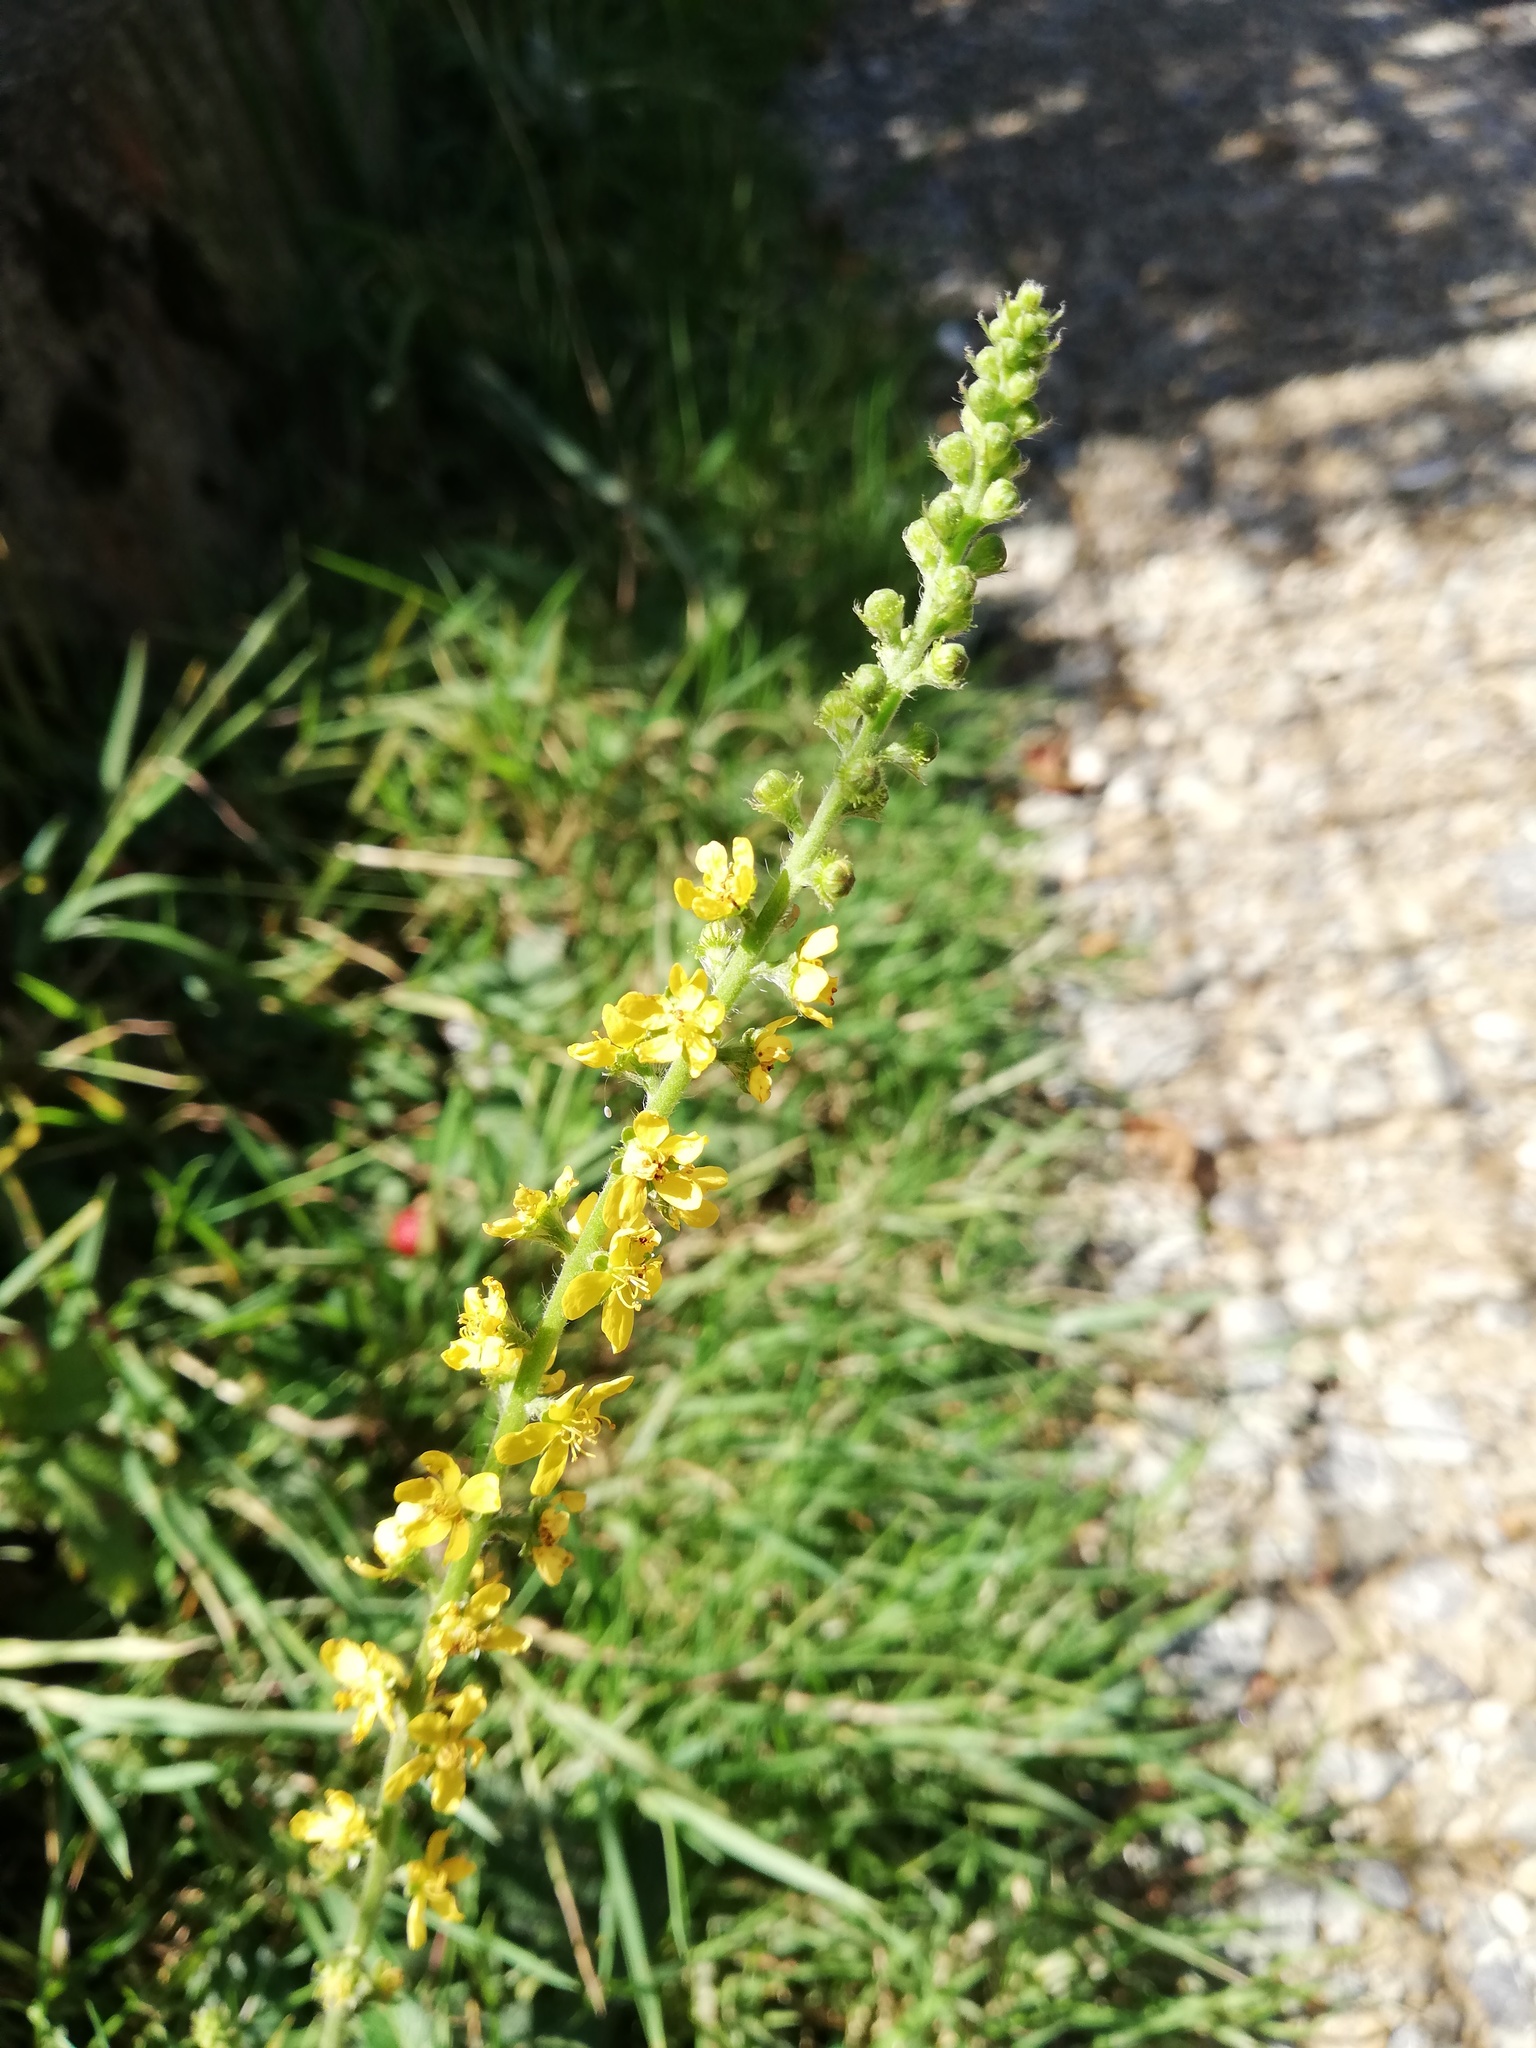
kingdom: Plantae
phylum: Tracheophyta
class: Magnoliopsida
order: Rosales
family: Rosaceae
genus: Agrimonia
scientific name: Agrimonia eupatoria
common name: Agrimony
